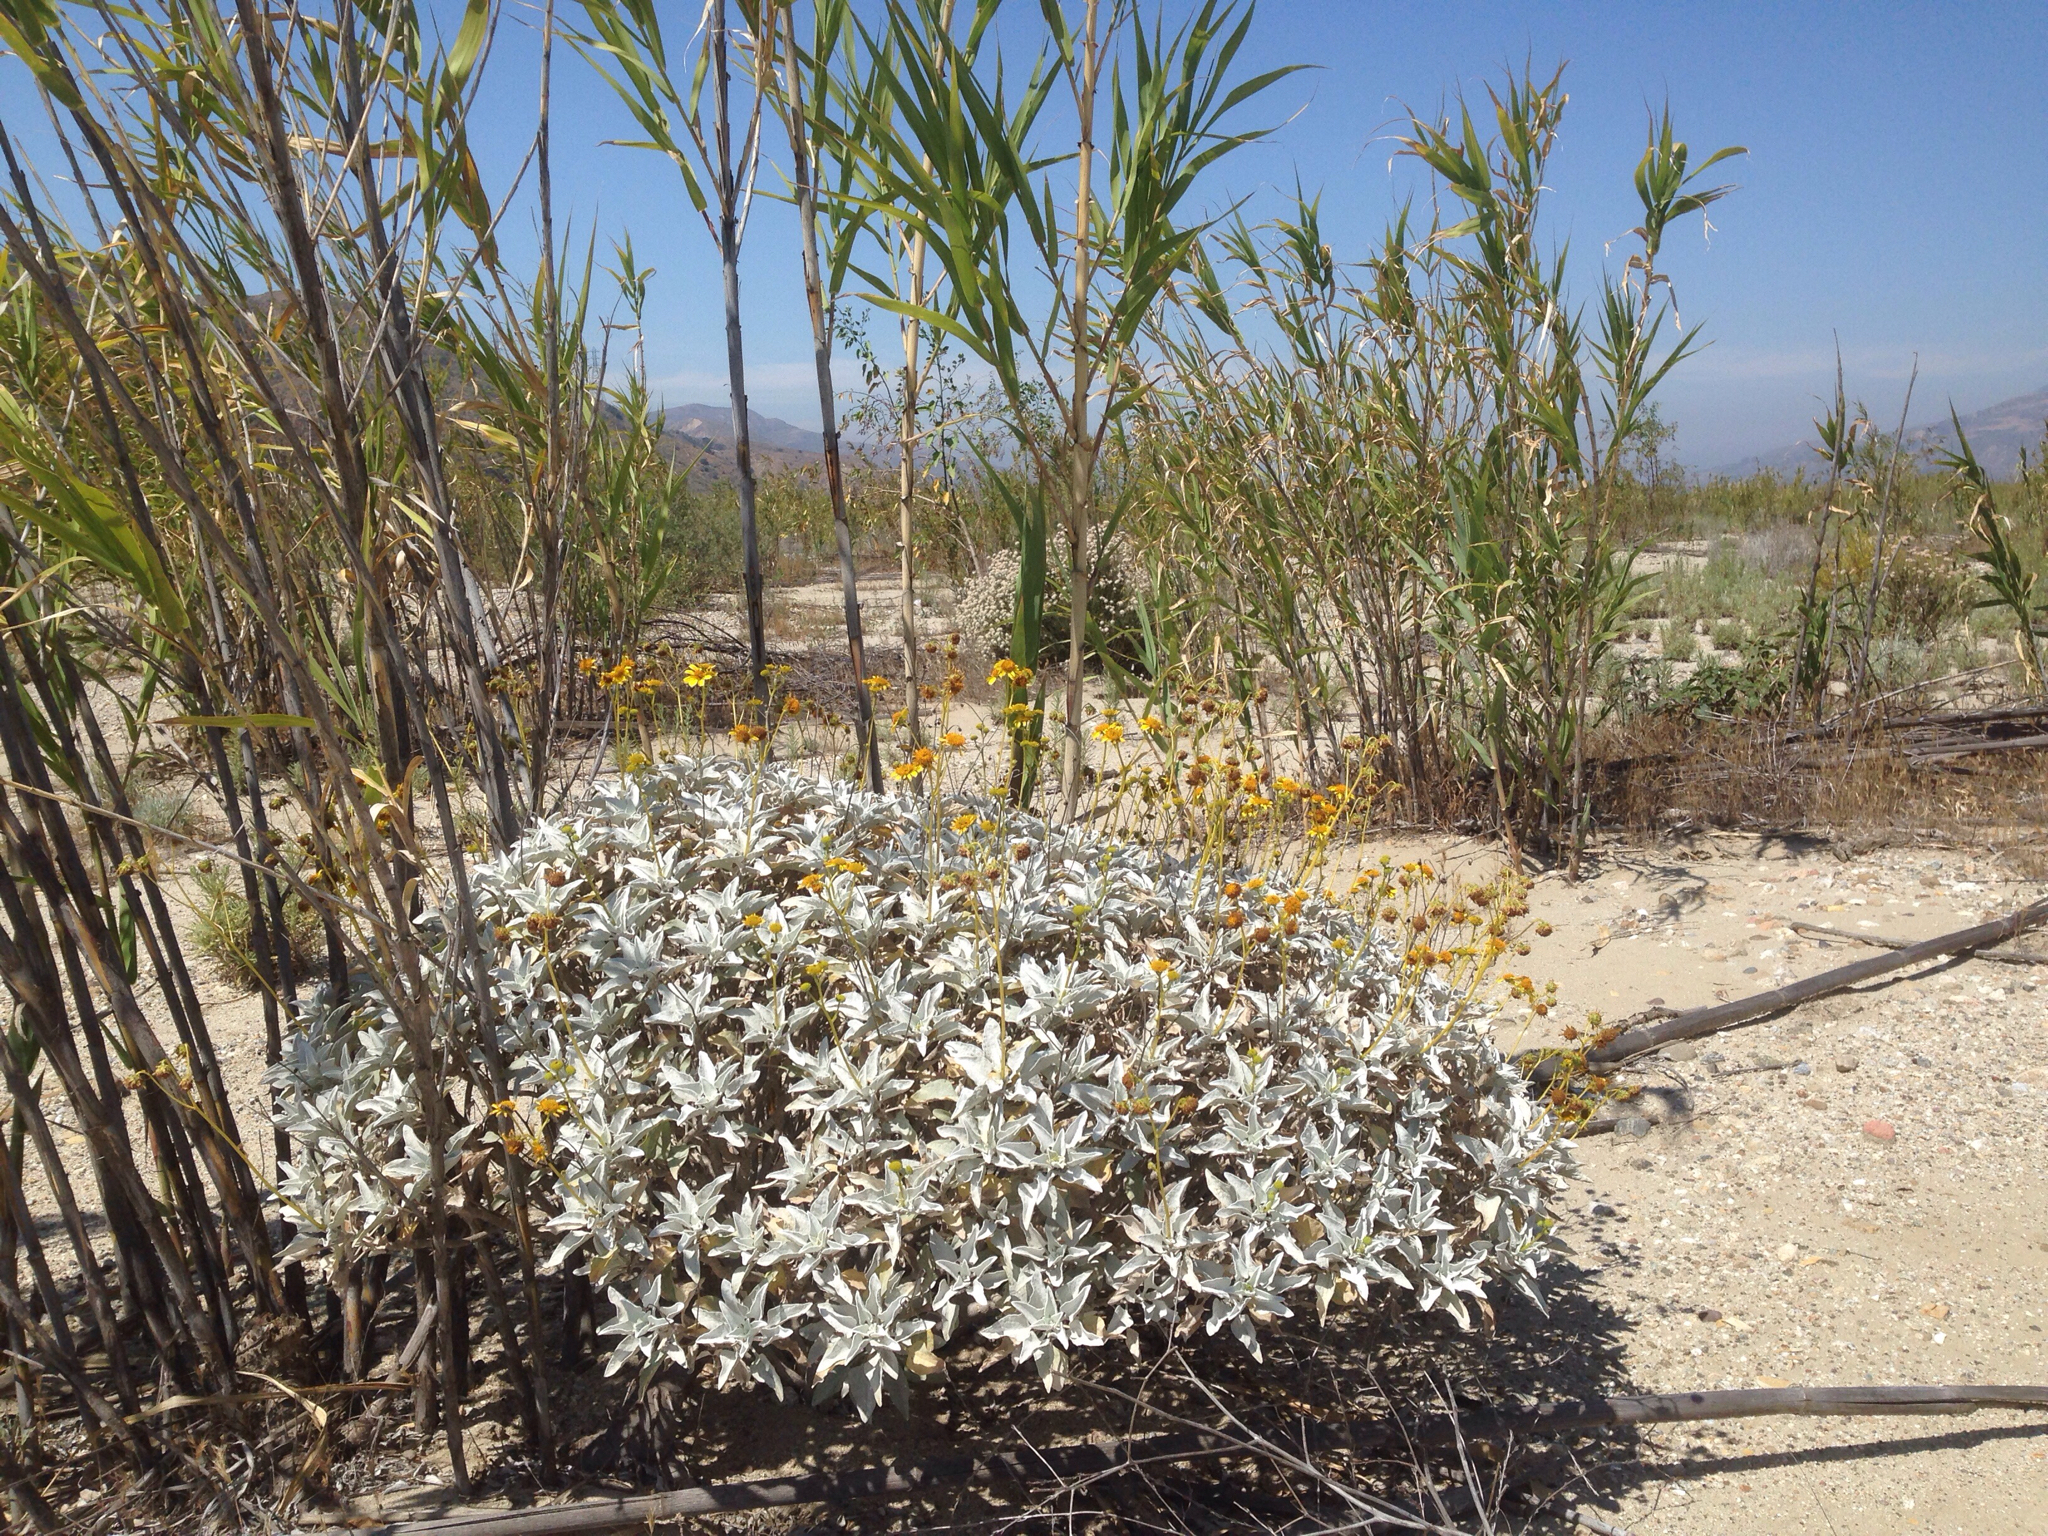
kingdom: Plantae
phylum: Tracheophyta
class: Magnoliopsida
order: Asterales
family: Asteraceae
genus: Encelia
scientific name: Encelia farinosa
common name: Brittlebush
